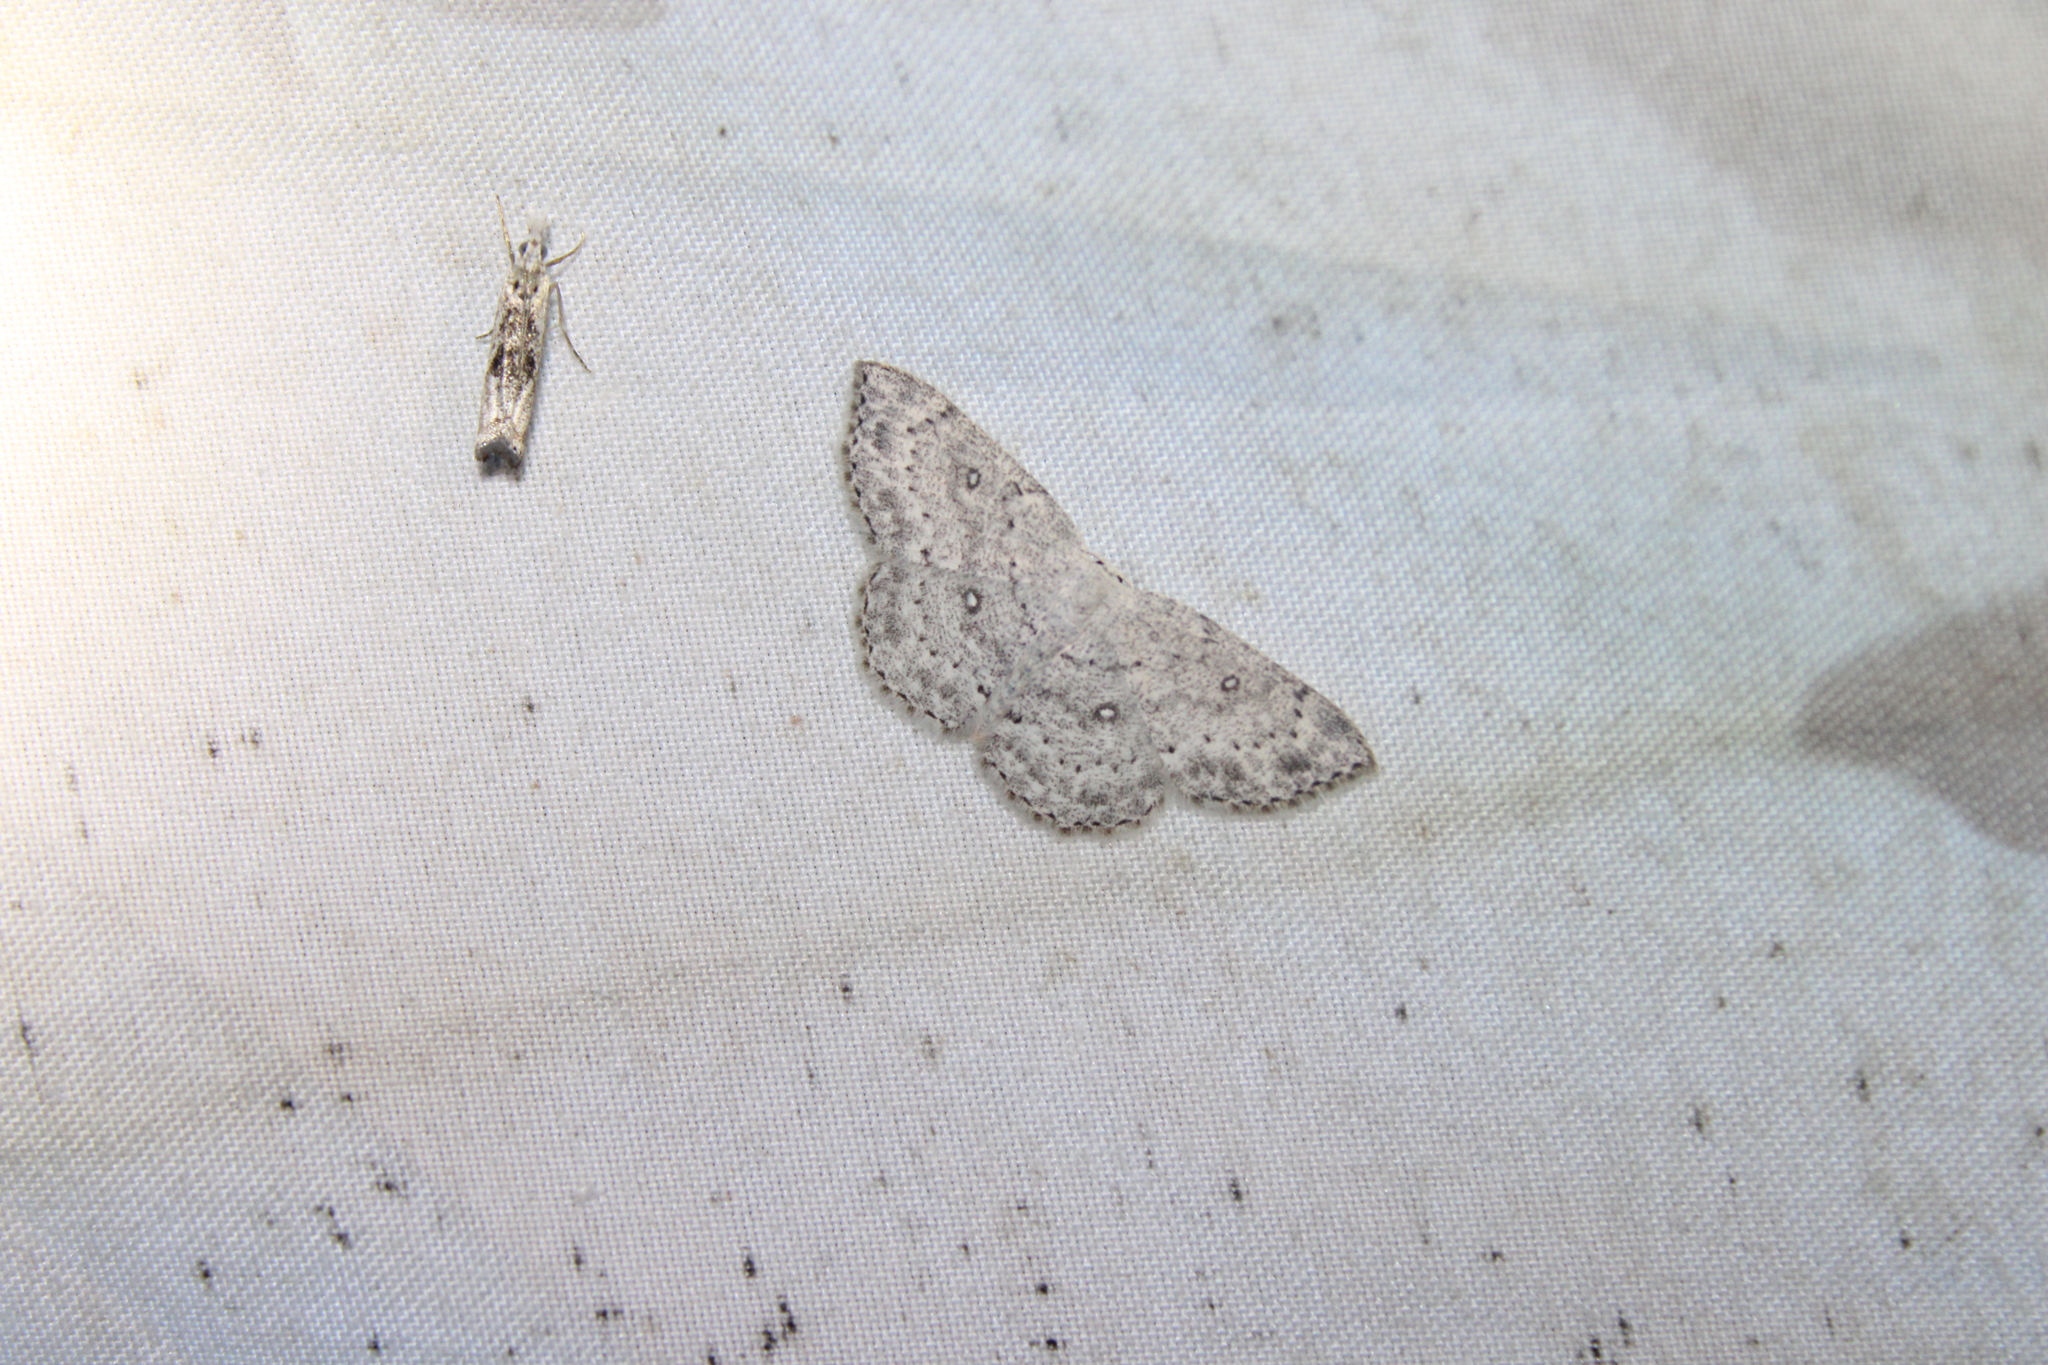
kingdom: Animalia
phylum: Arthropoda
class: Insecta
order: Lepidoptera
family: Geometridae
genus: Cyclophora
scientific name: Cyclophora pendulinaria
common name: Sweet fern geometer
